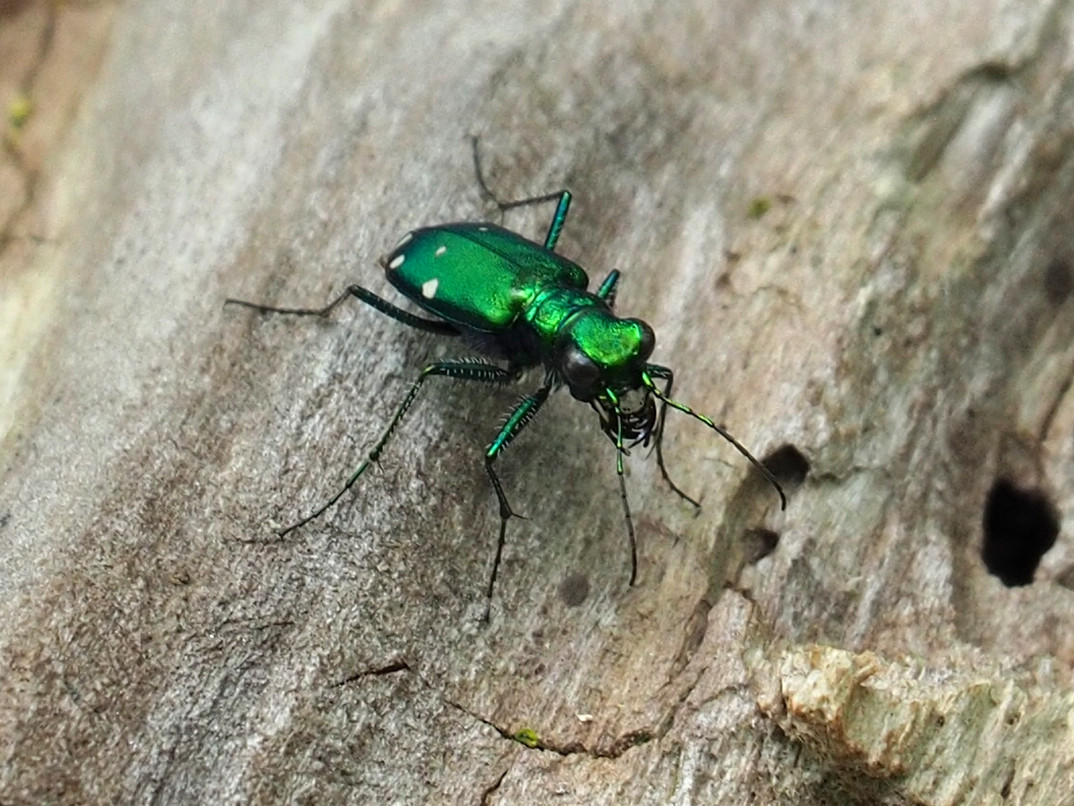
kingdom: Animalia
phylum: Arthropoda
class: Insecta
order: Coleoptera
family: Carabidae
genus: Cicindela
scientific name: Cicindela sexguttata
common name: Six-spotted tiger beetle
